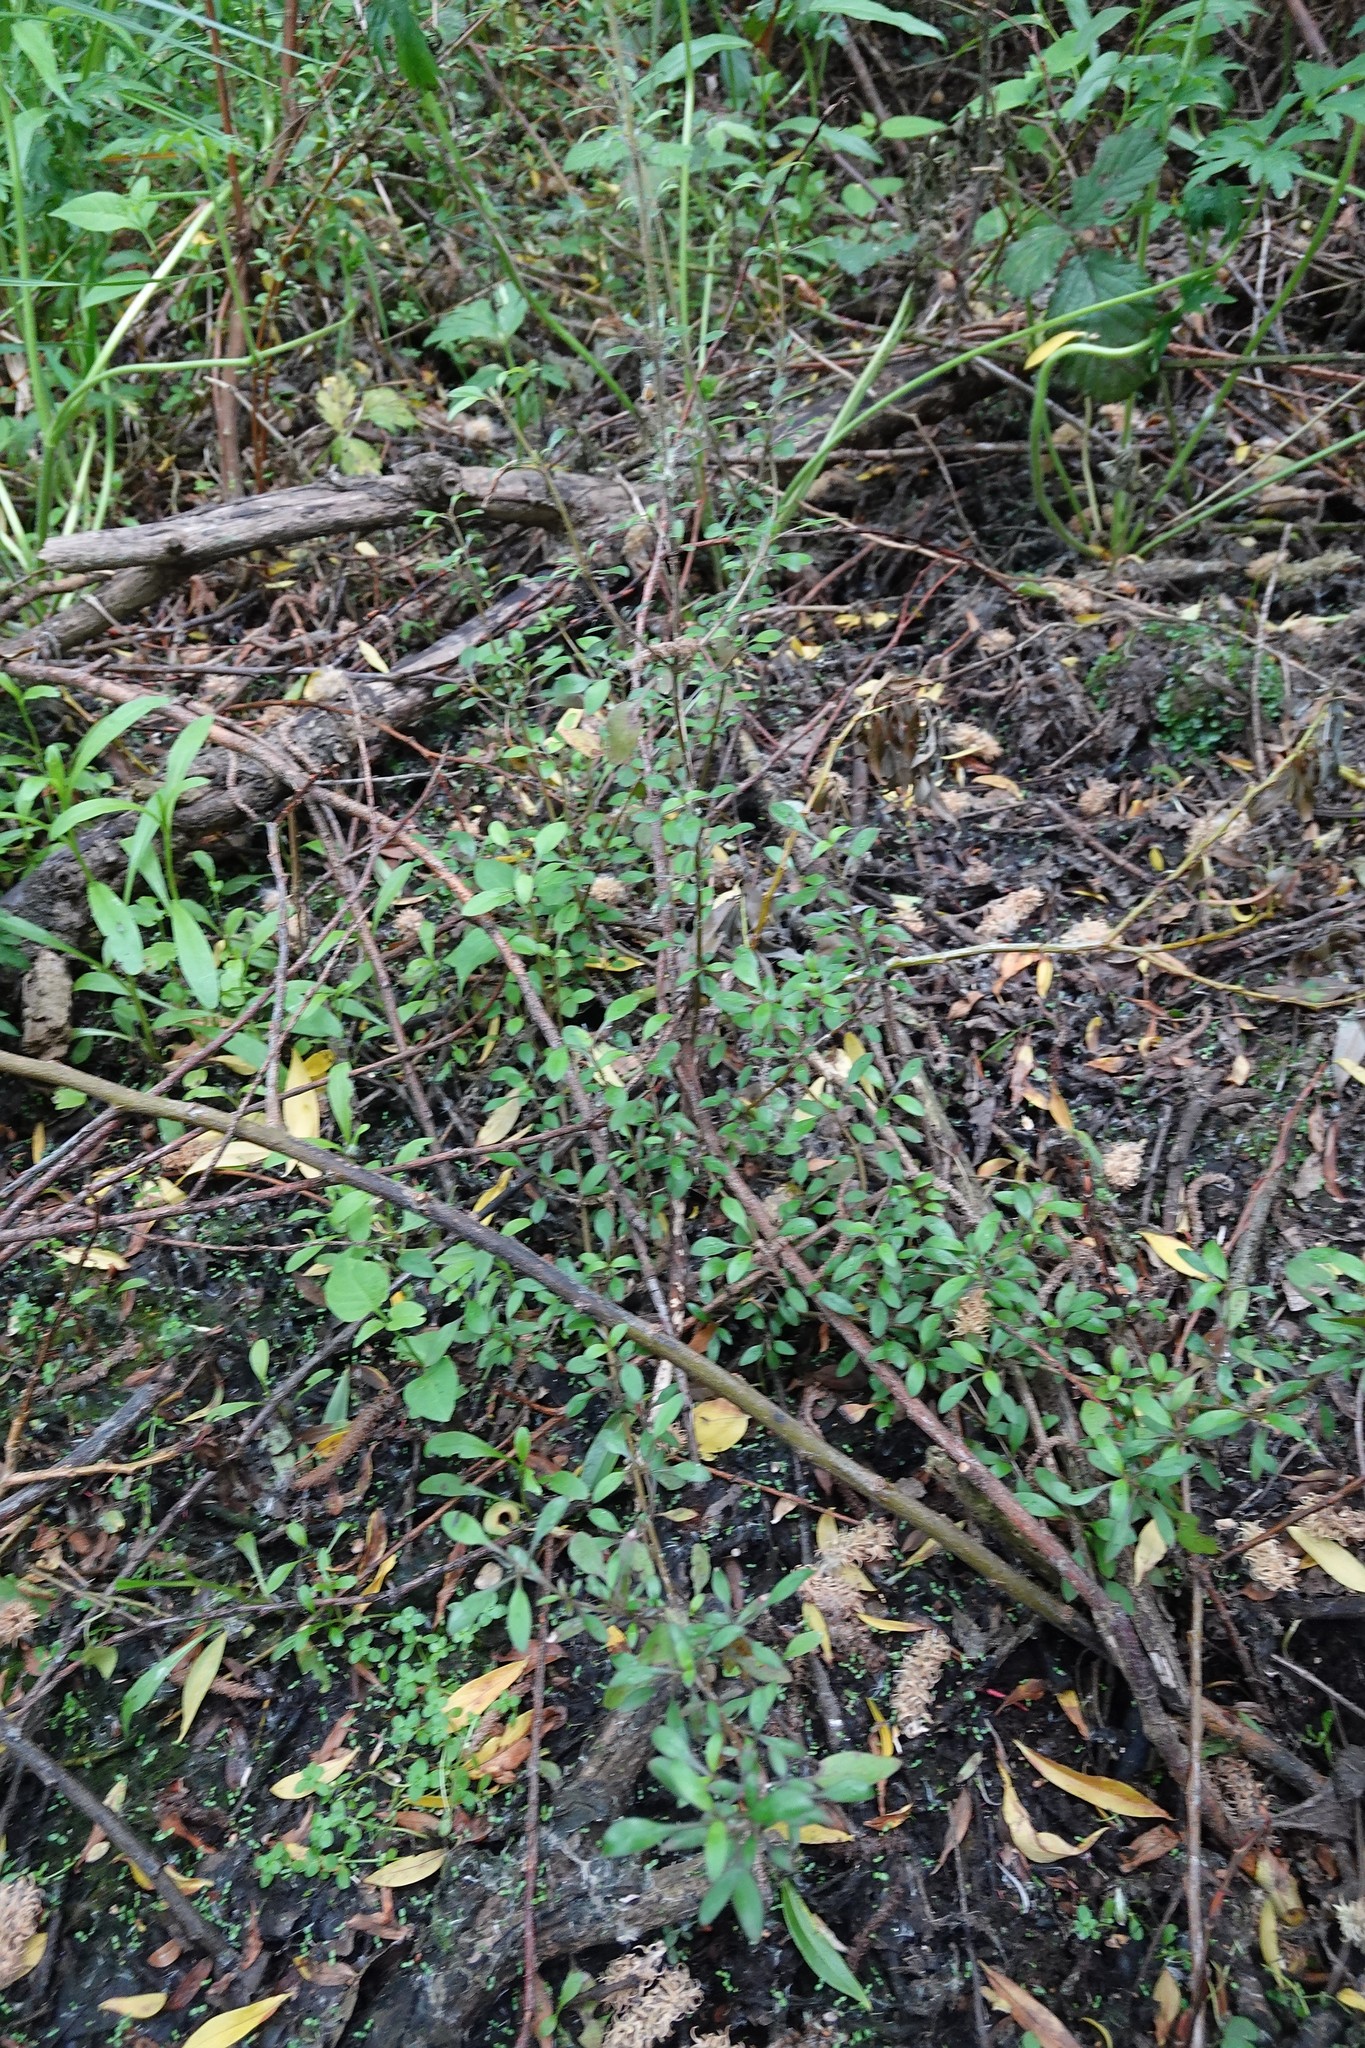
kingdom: Plantae
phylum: Tracheophyta
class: Magnoliopsida
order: Gentianales
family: Rubiaceae
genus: Coprosma
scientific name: Coprosma cunninghamii
